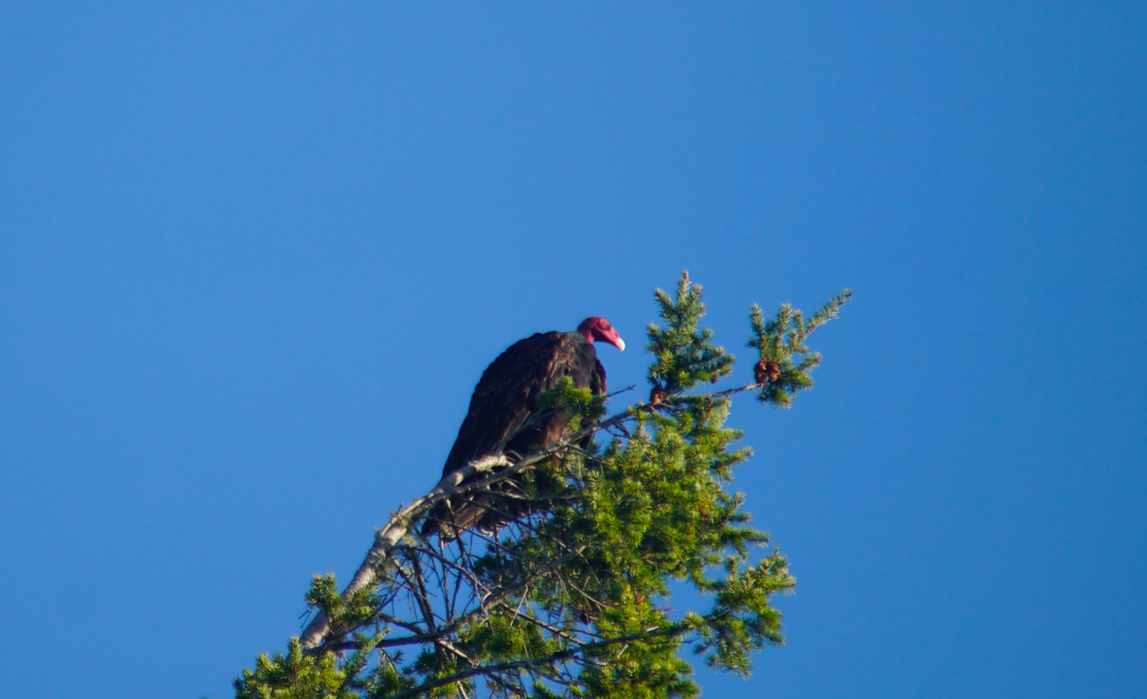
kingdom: Animalia
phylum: Chordata
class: Aves
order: Accipitriformes
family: Cathartidae
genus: Cathartes
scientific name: Cathartes aura
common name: Turkey vulture
